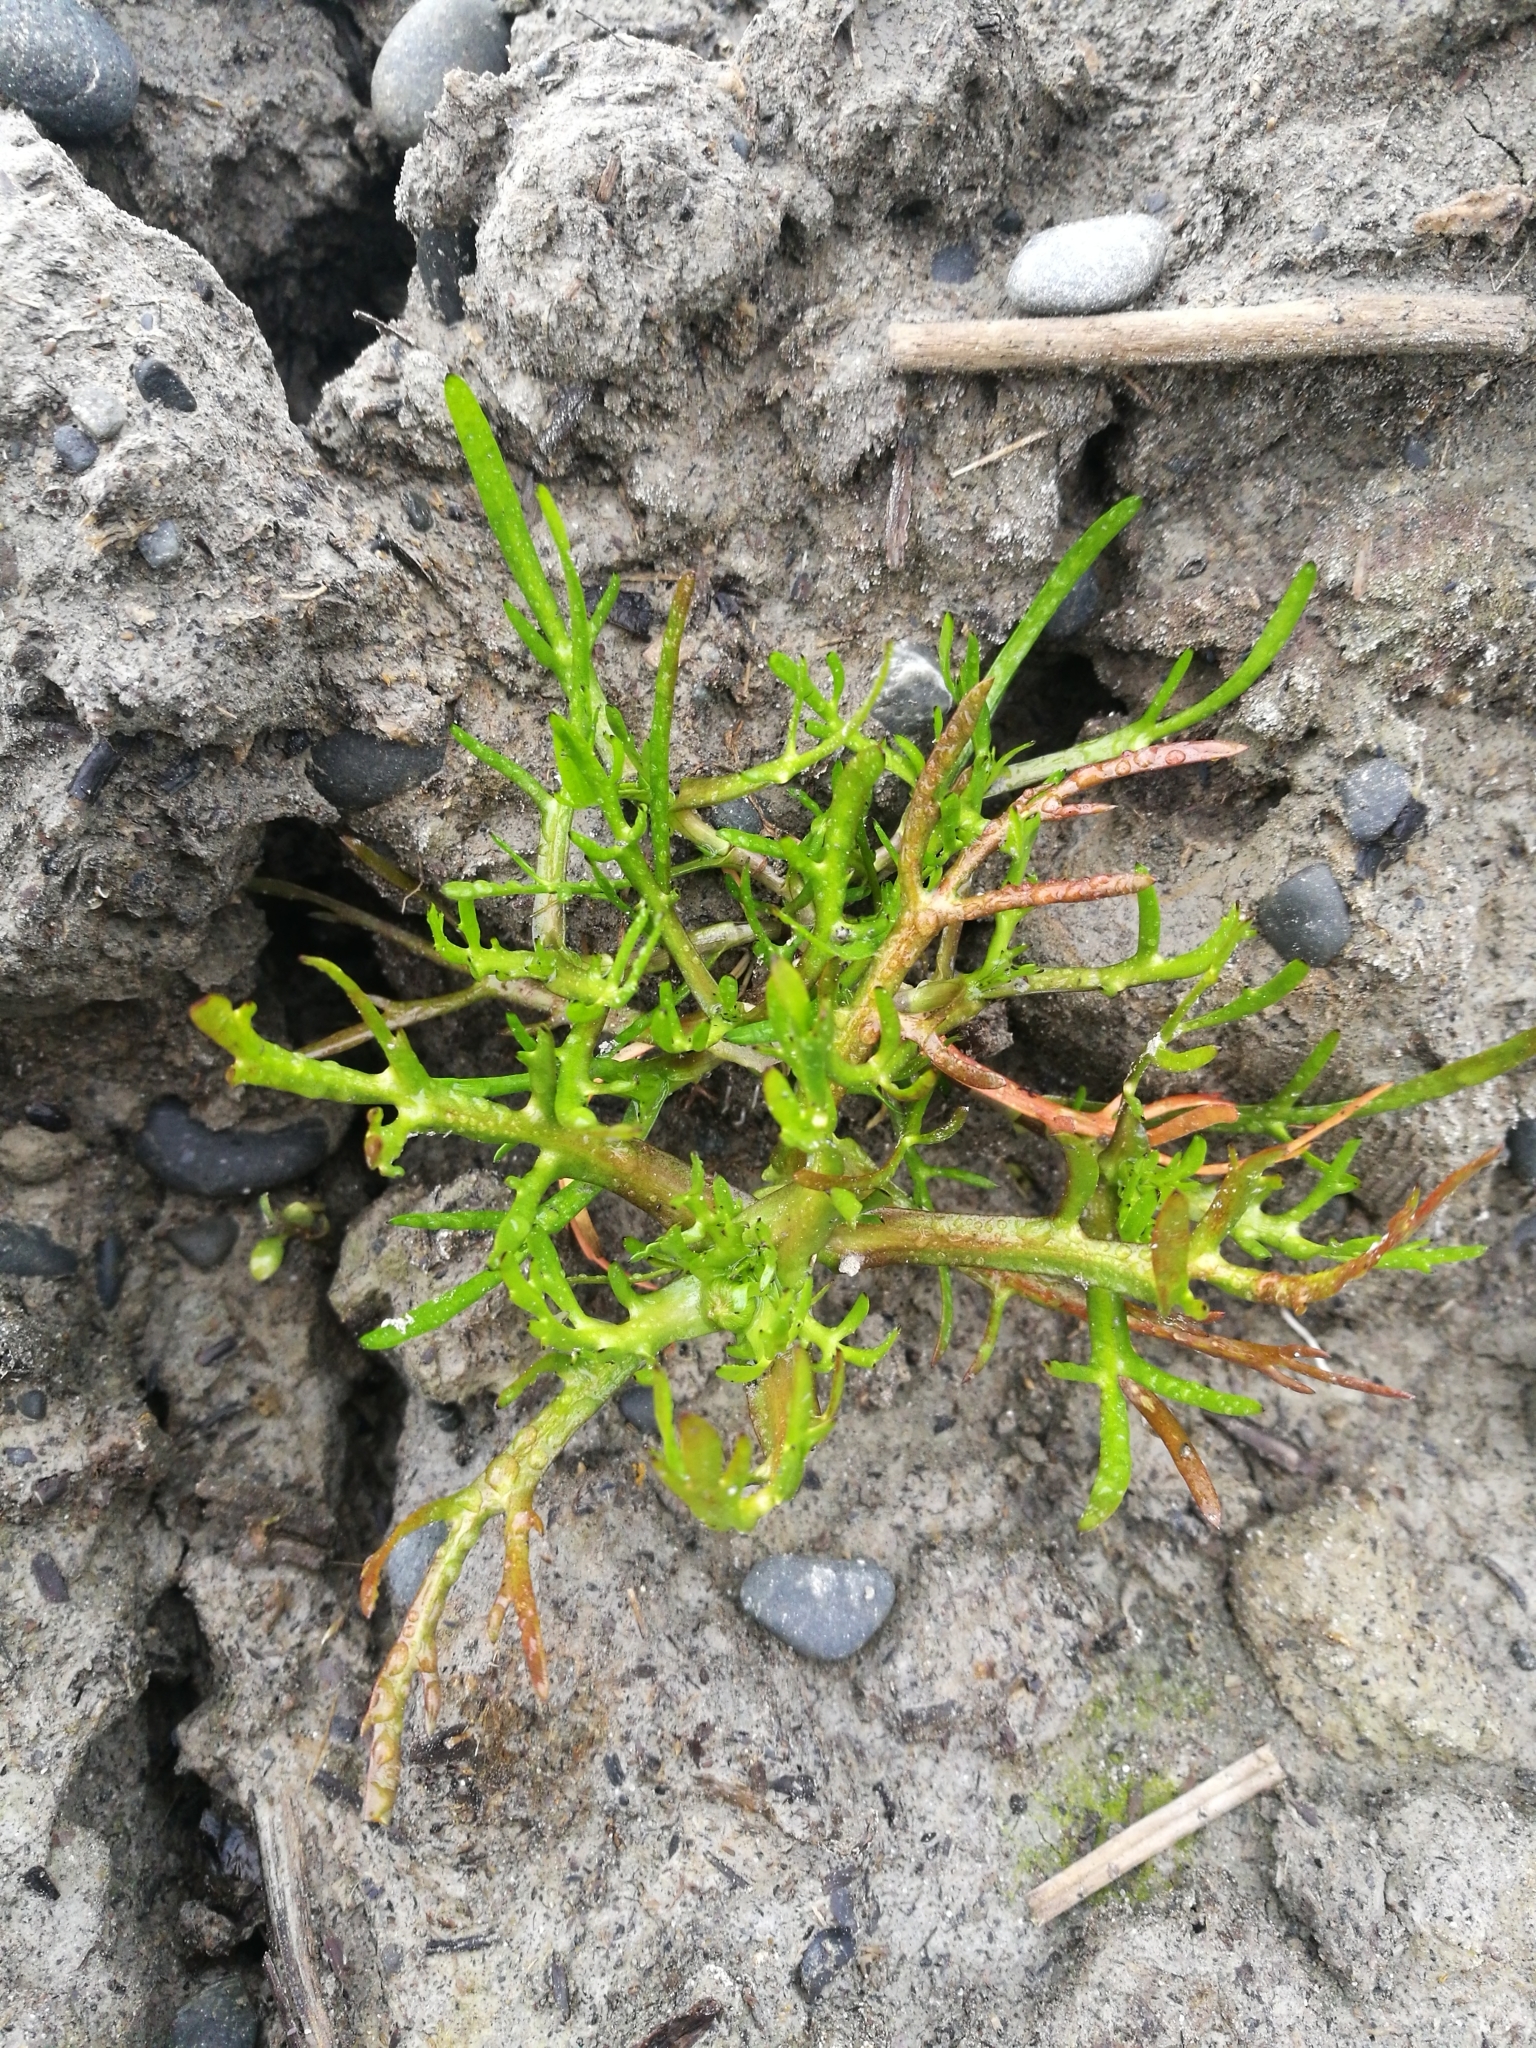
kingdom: Plantae
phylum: Tracheophyta
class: Magnoliopsida
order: Asterales
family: Asteraceae
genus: Cotula
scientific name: Cotula coronopifolia
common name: Buttonweed
